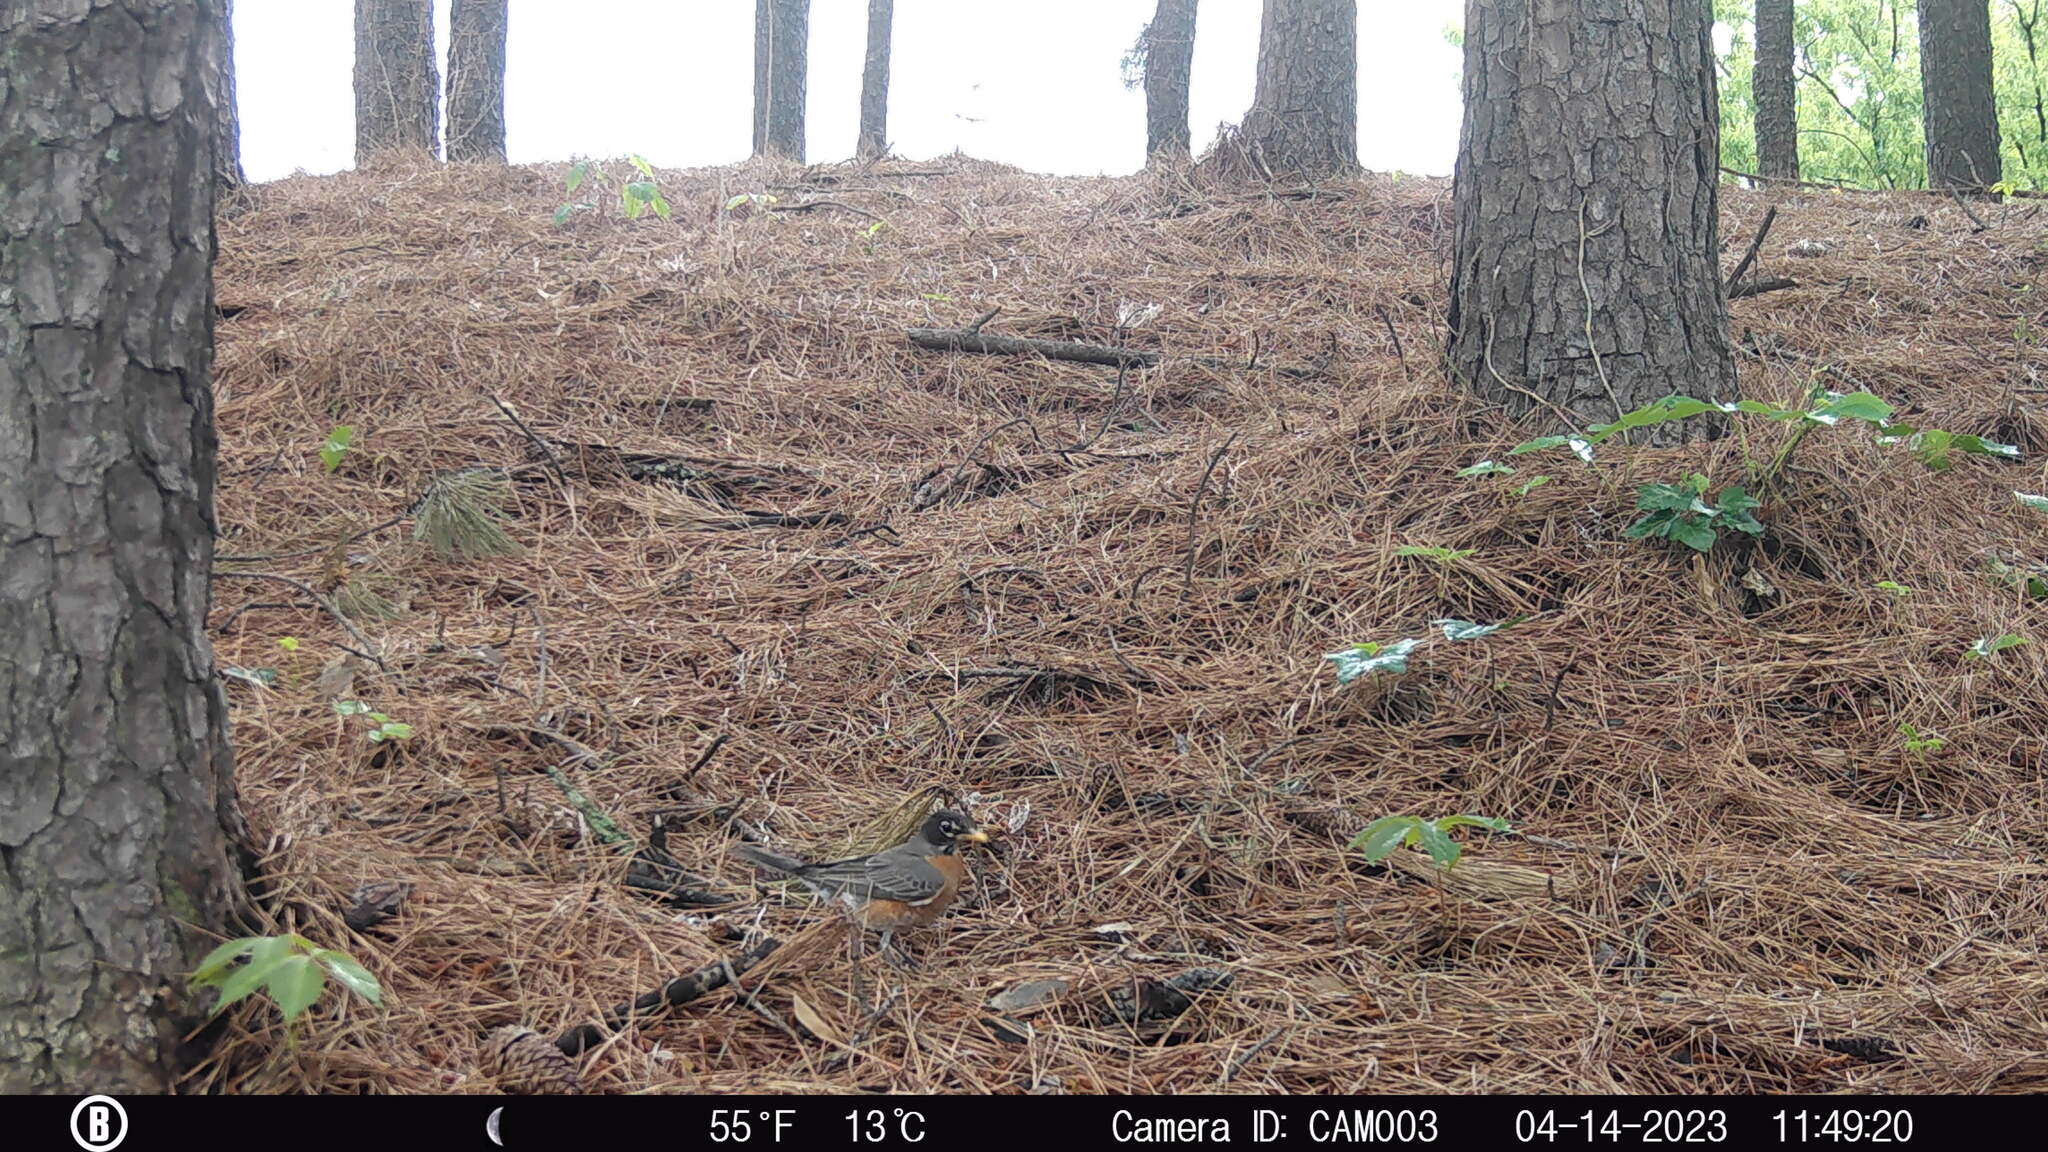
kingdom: Animalia
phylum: Chordata
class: Aves
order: Passeriformes
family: Turdidae
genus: Turdus
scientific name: Turdus migratorius
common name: American robin
